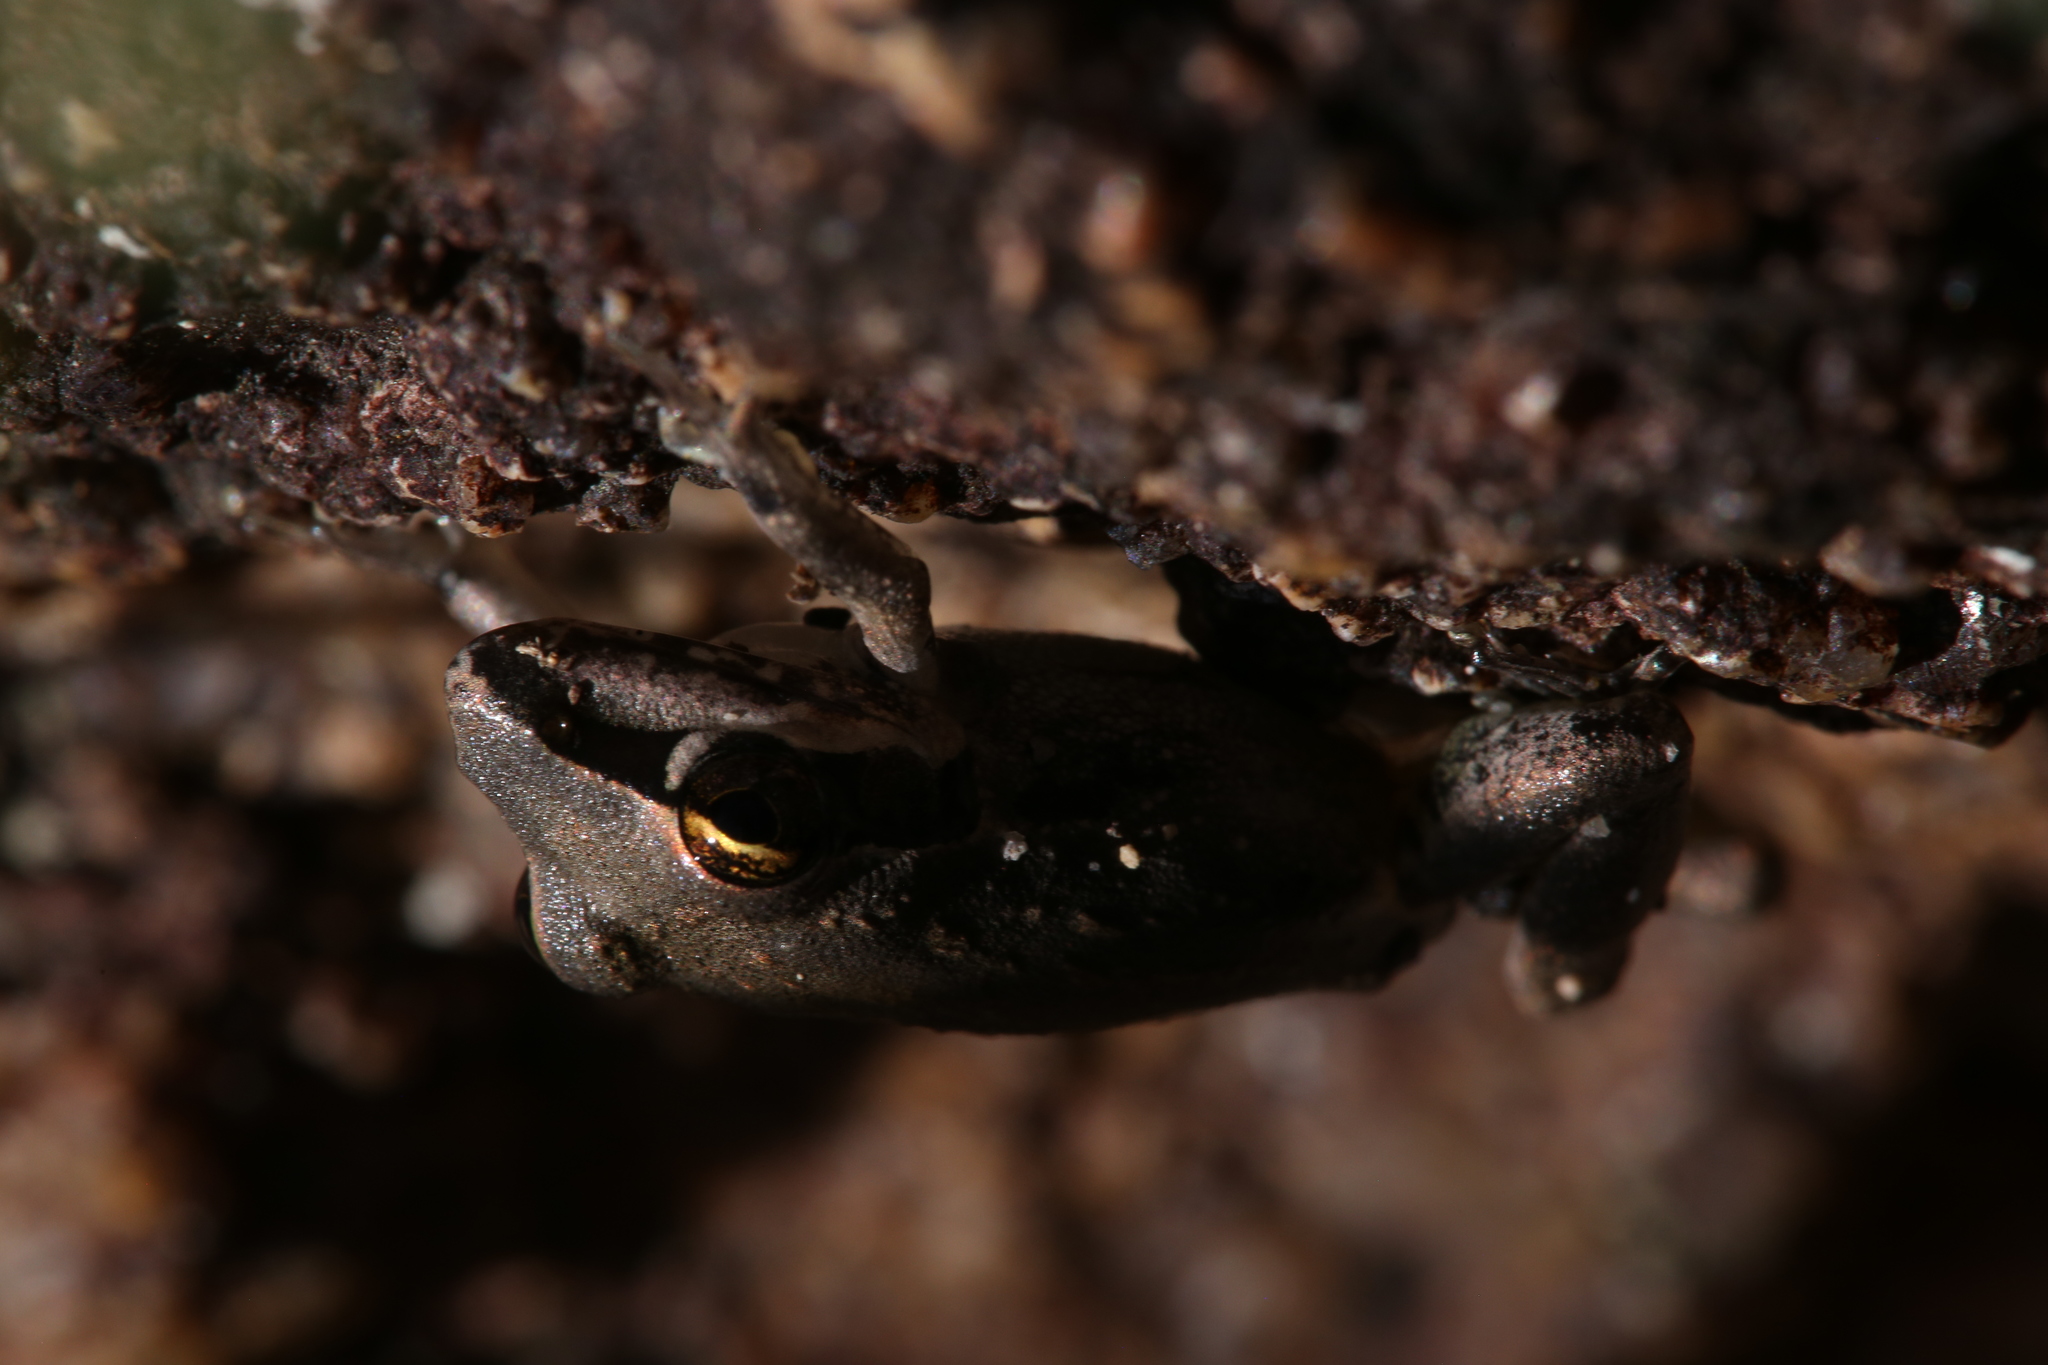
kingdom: Animalia
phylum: Chordata
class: Amphibia
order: Anura
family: Pelodryadidae
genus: Litoria
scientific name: Litoria latopalmata
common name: Broad-palmed rocket frog
